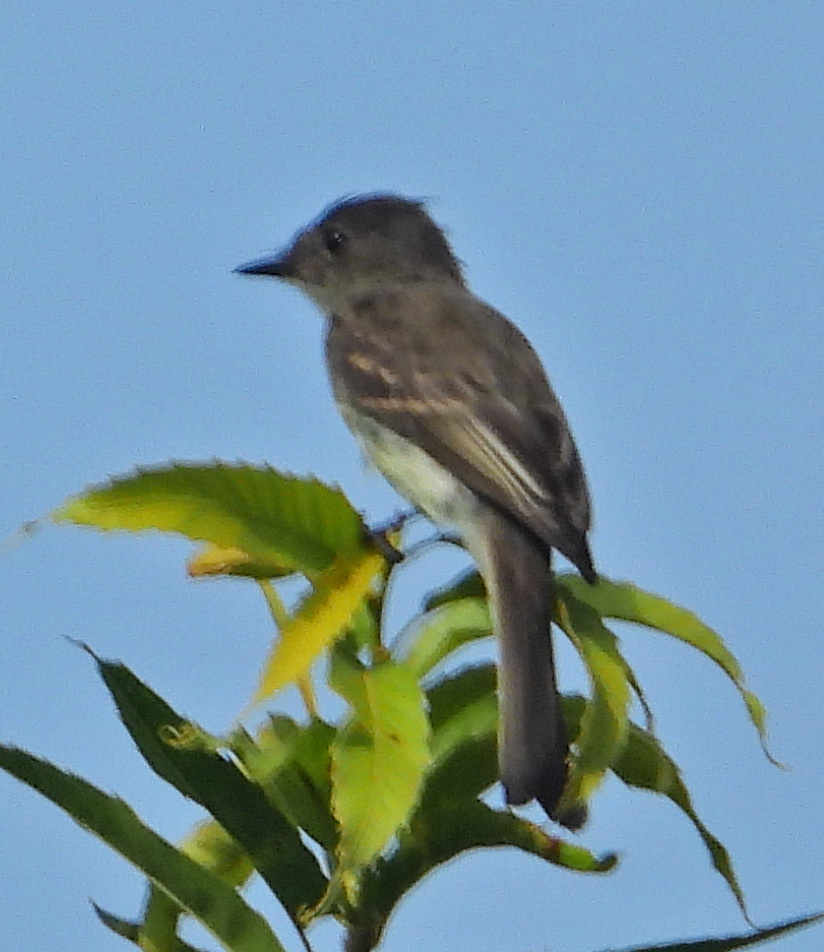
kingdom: Animalia
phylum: Chordata
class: Aves
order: Passeriformes
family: Tyrannidae
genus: Sayornis
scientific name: Sayornis phoebe
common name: Eastern phoebe
